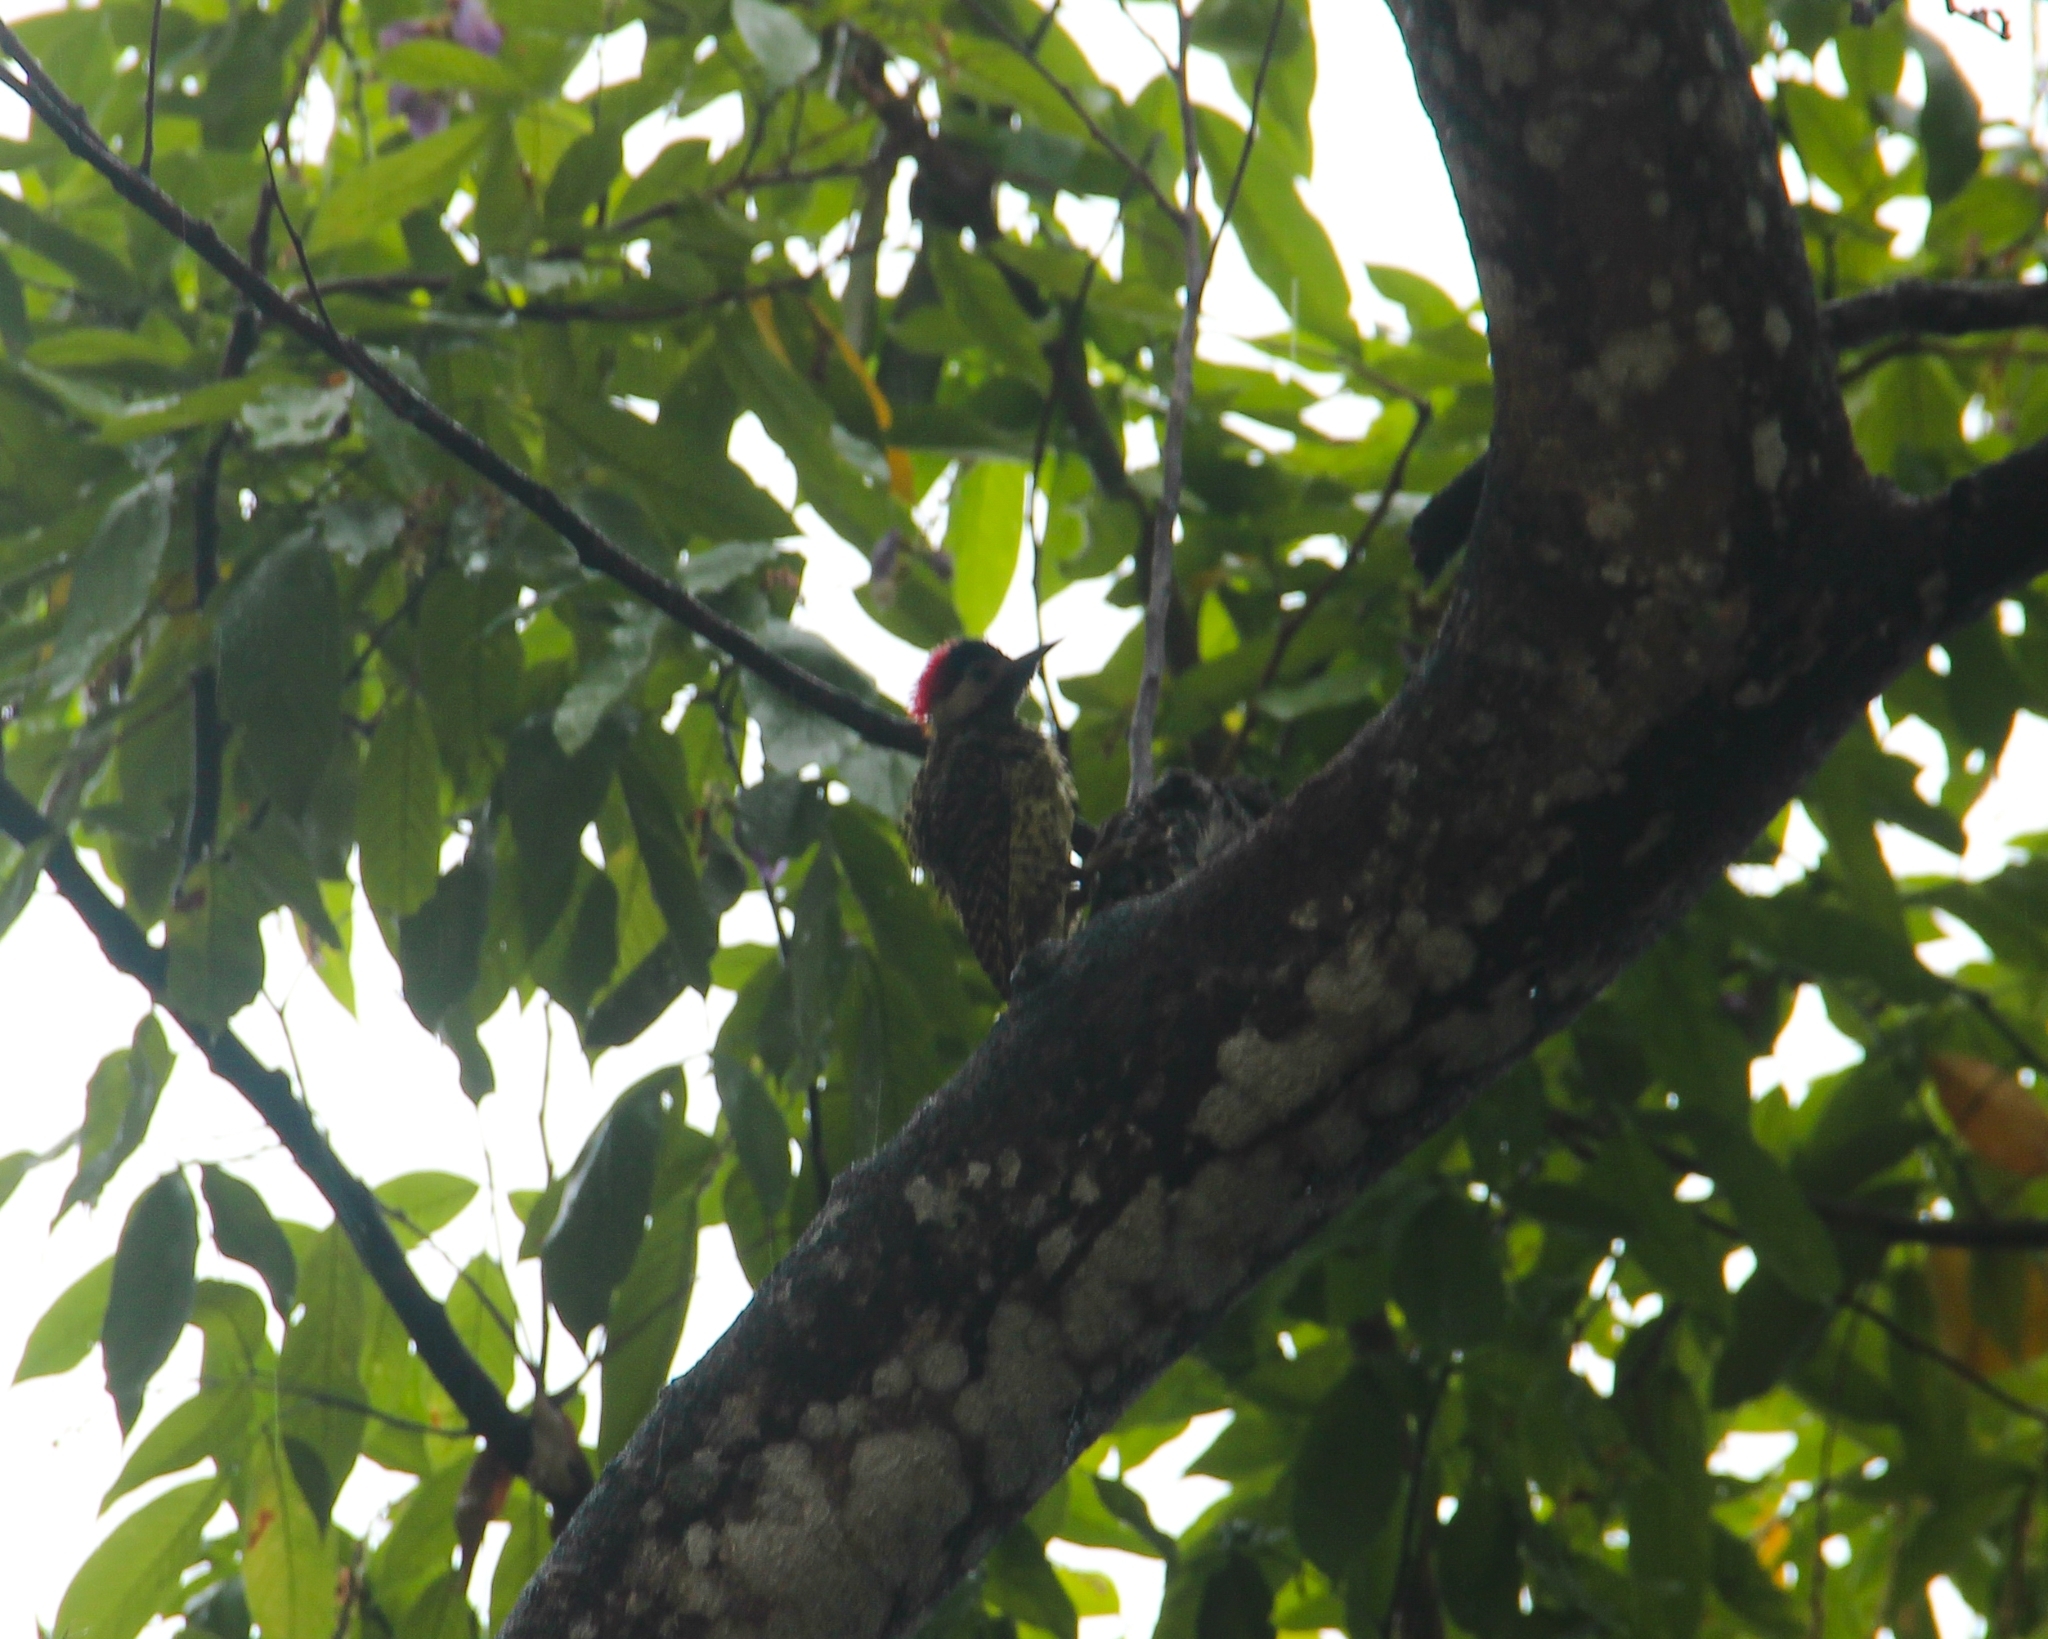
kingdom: Animalia
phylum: Chordata
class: Aves
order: Piciformes
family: Picidae
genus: Colaptes
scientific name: Colaptes melanochloros
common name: Green-barred woodpecker
